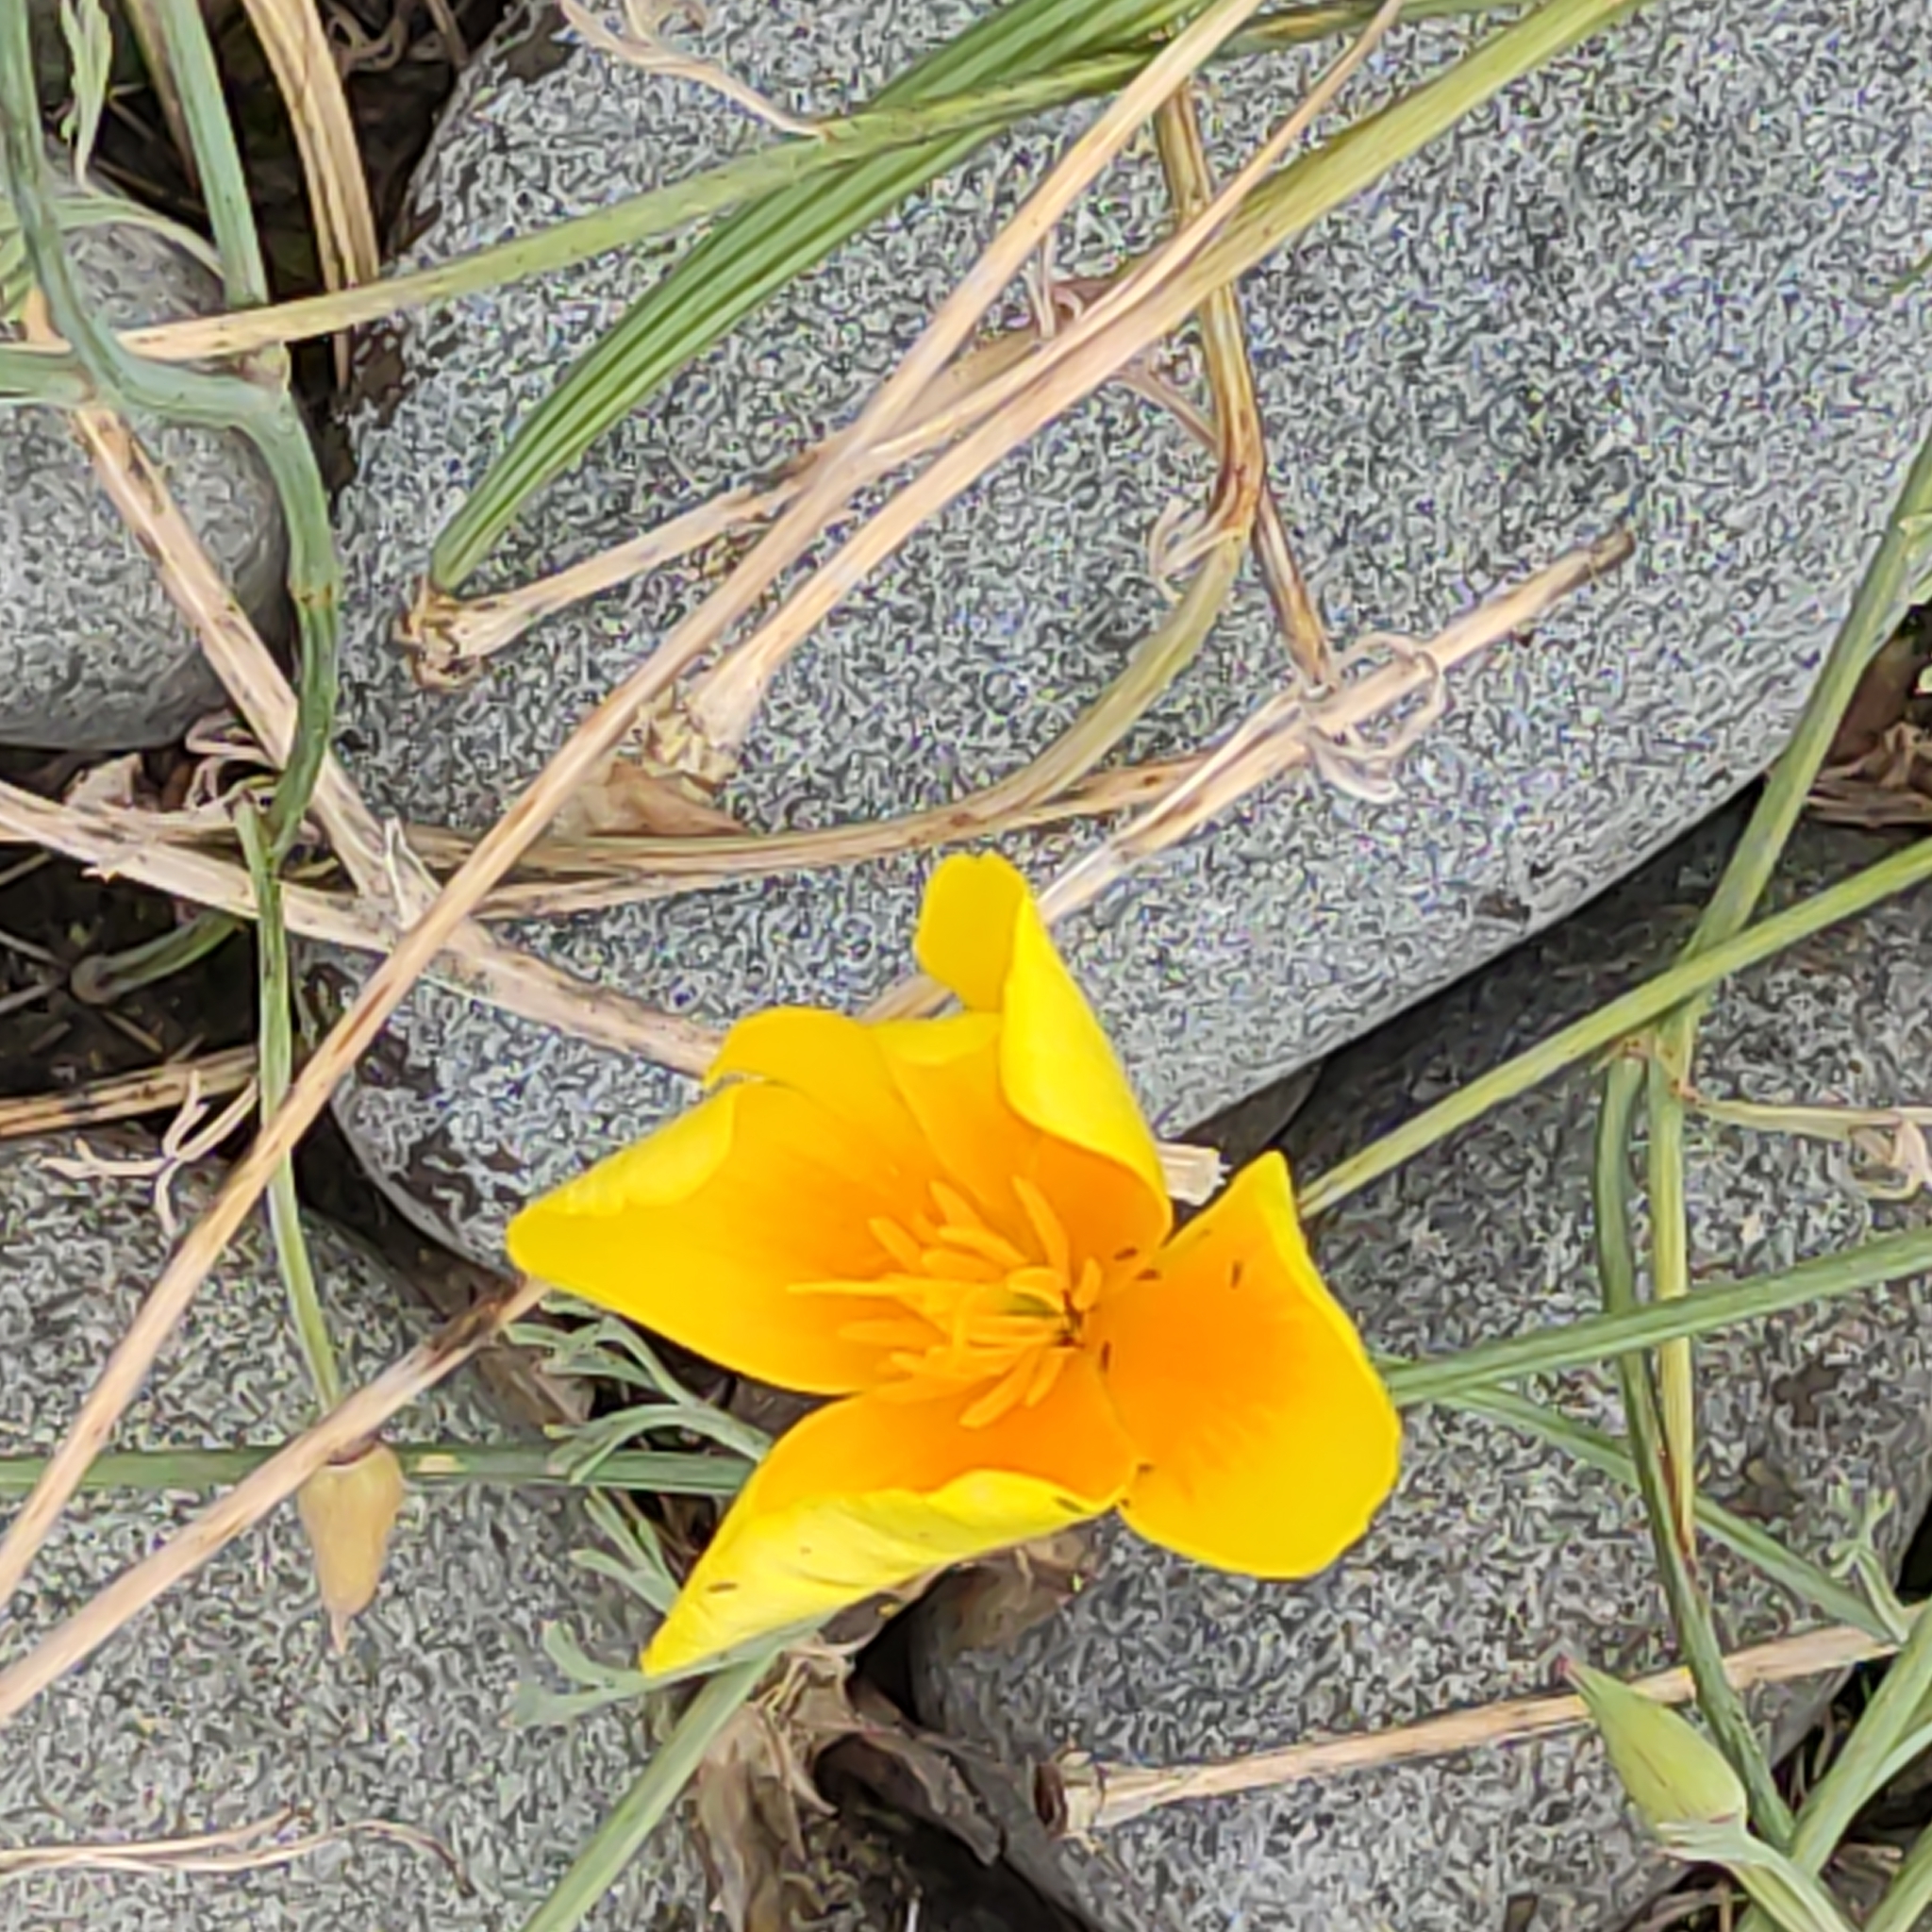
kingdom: Plantae
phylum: Tracheophyta
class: Magnoliopsida
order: Ranunculales
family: Papaveraceae
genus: Eschscholzia
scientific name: Eschscholzia californica
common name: California poppy
